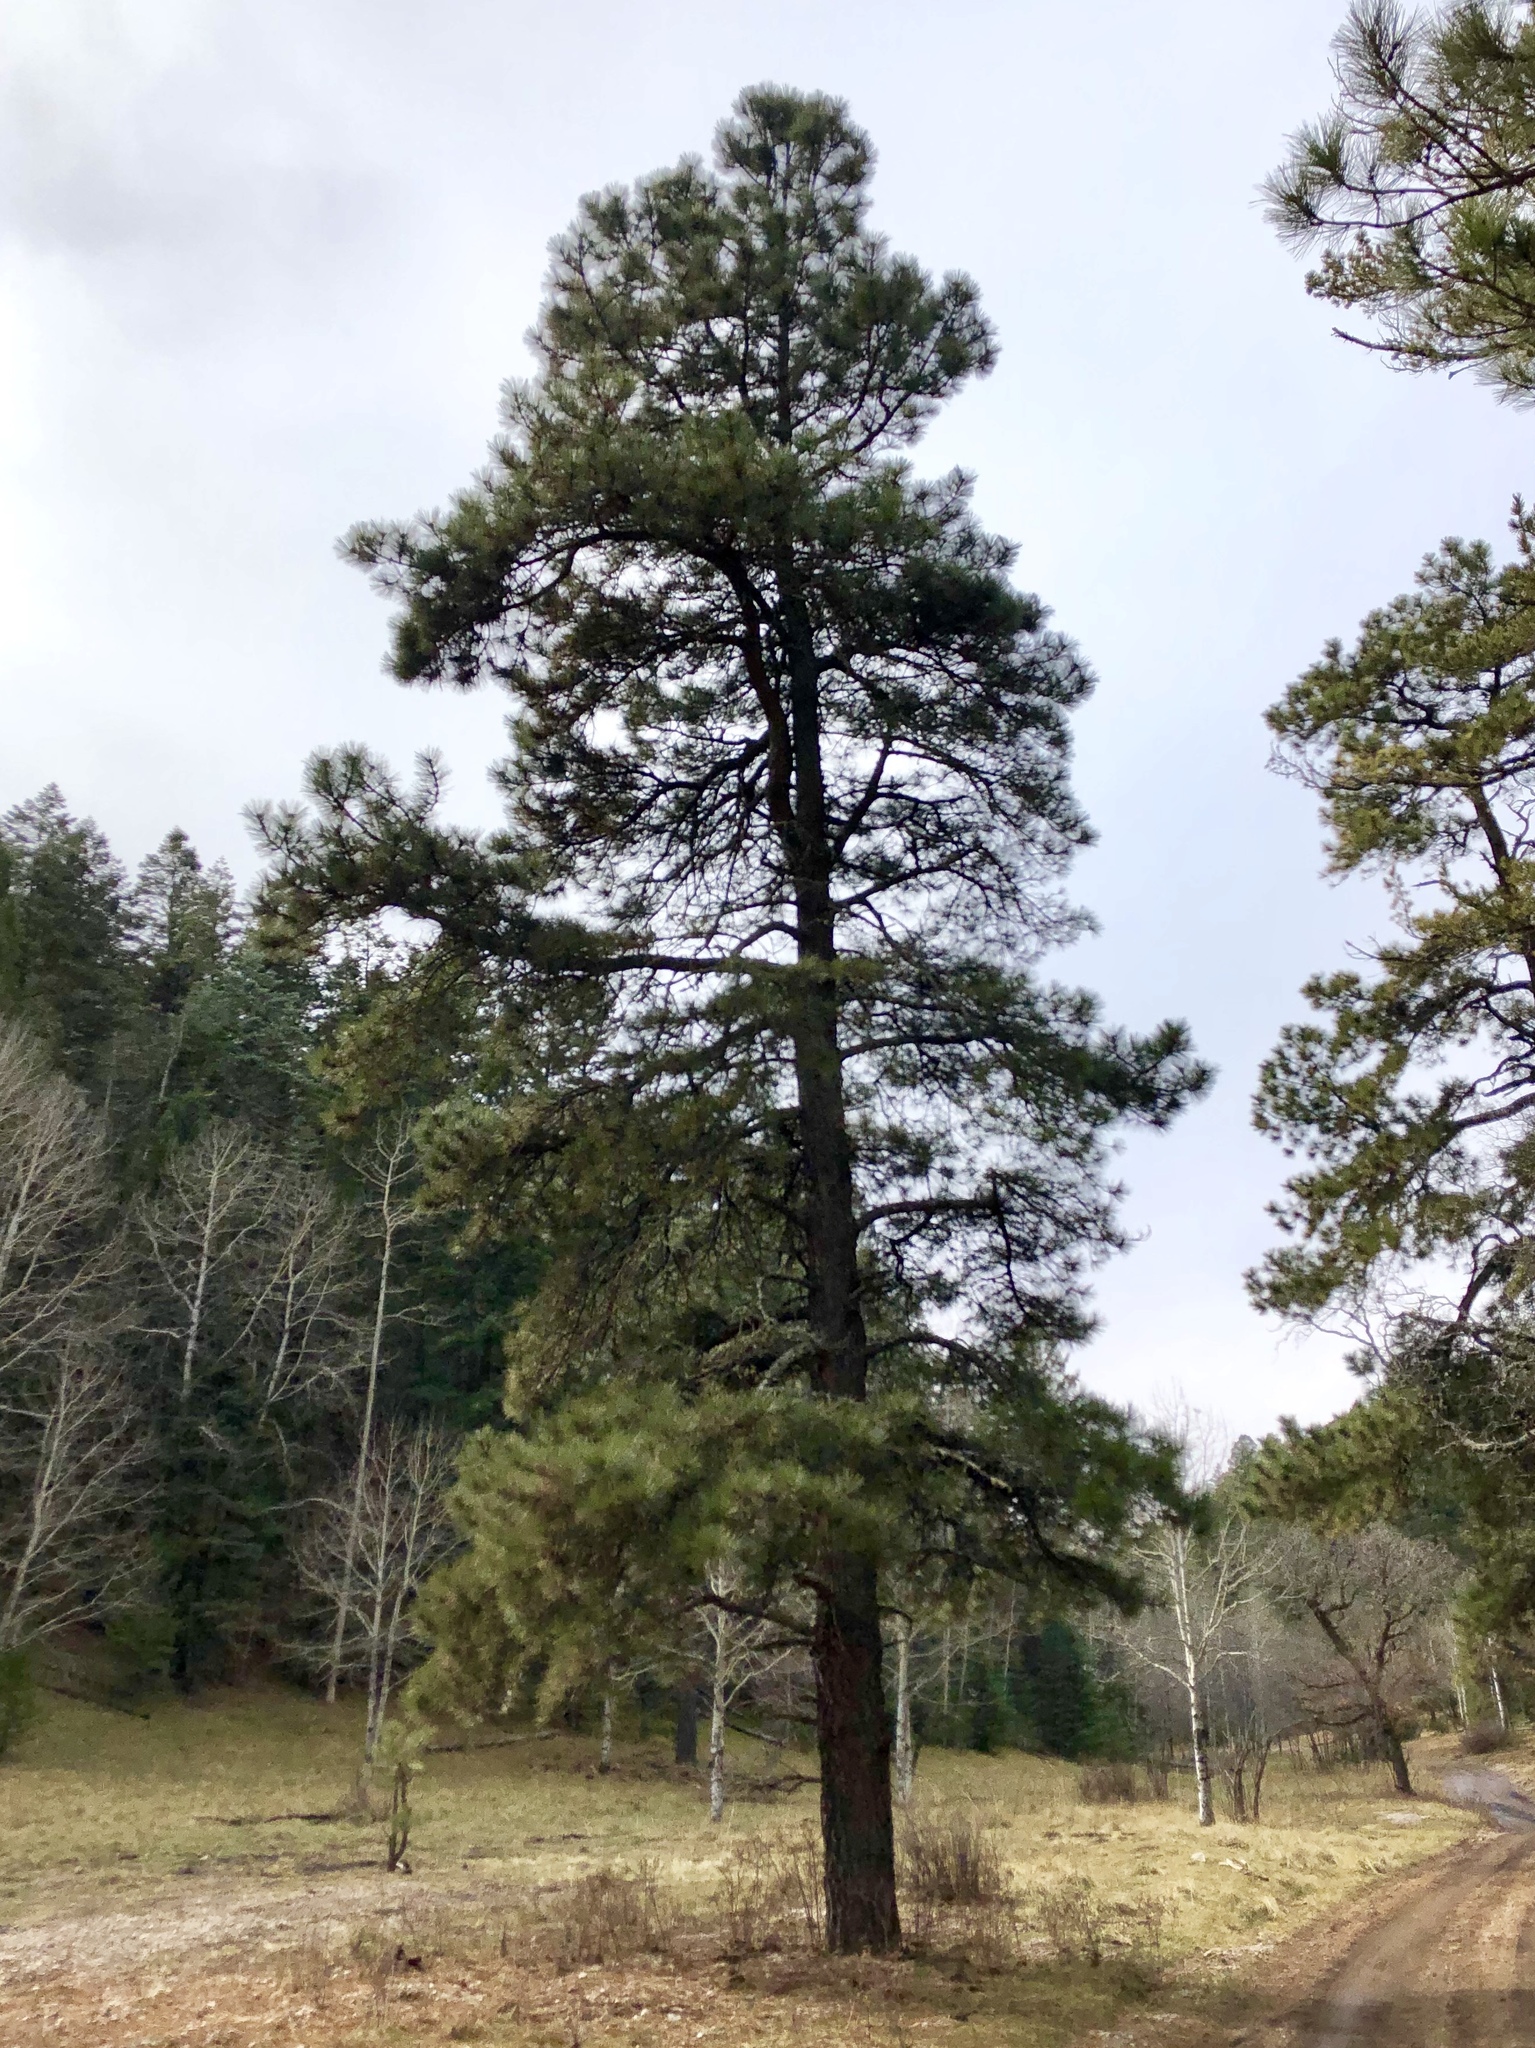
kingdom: Plantae
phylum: Tracheophyta
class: Pinopsida
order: Pinales
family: Pinaceae
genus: Pinus
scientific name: Pinus ponderosa
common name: Western yellow-pine
